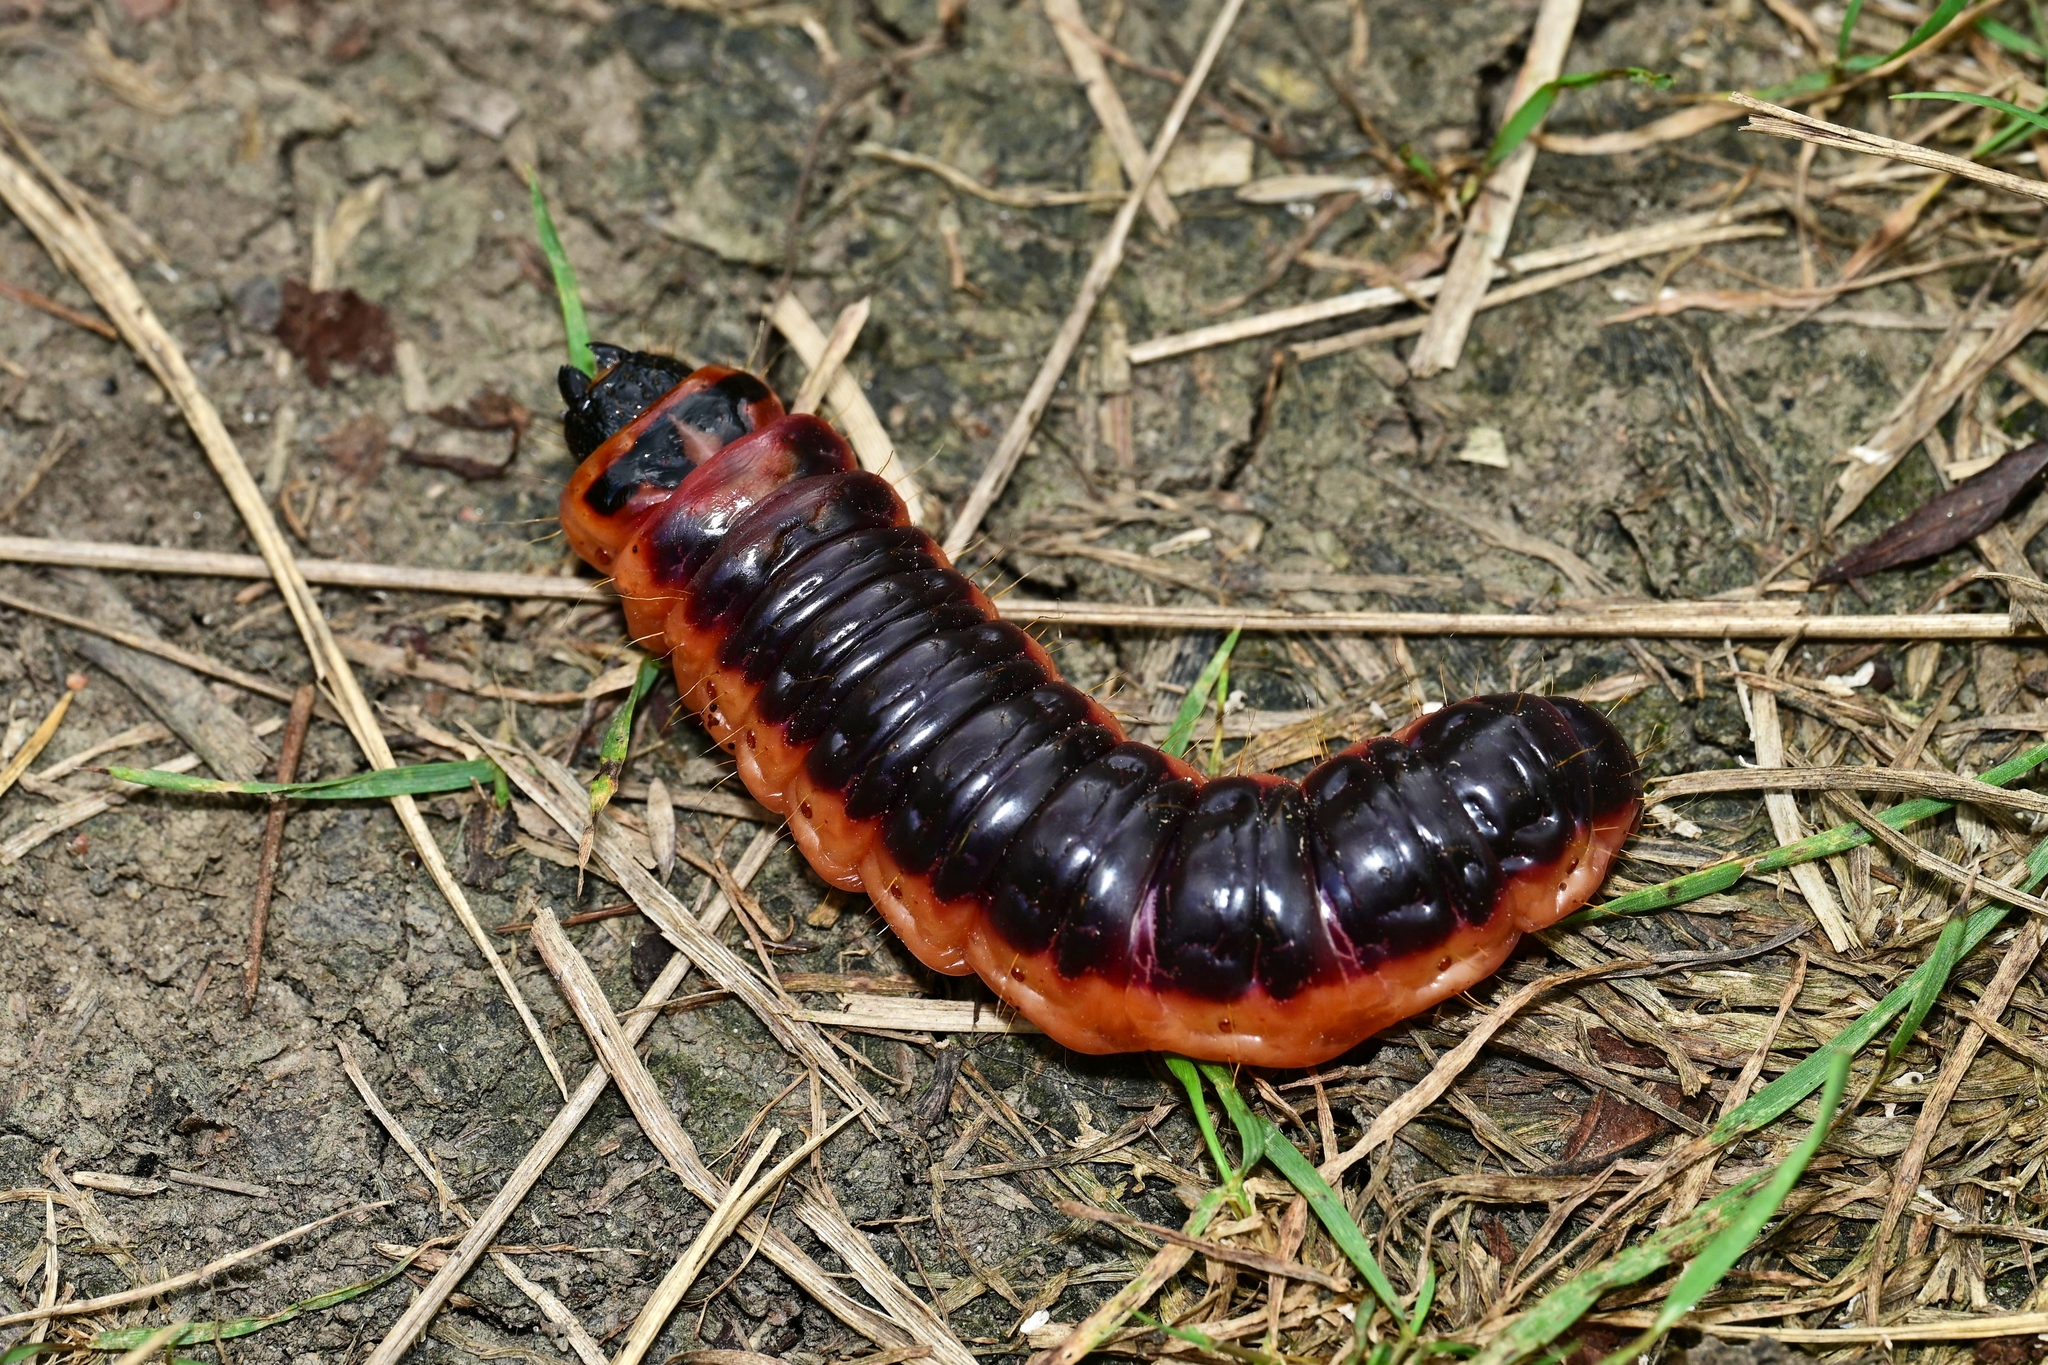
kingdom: Animalia
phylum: Arthropoda
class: Insecta
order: Lepidoptera
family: Cossidae
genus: Cossus
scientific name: Cossus cossus
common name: Goat moth
